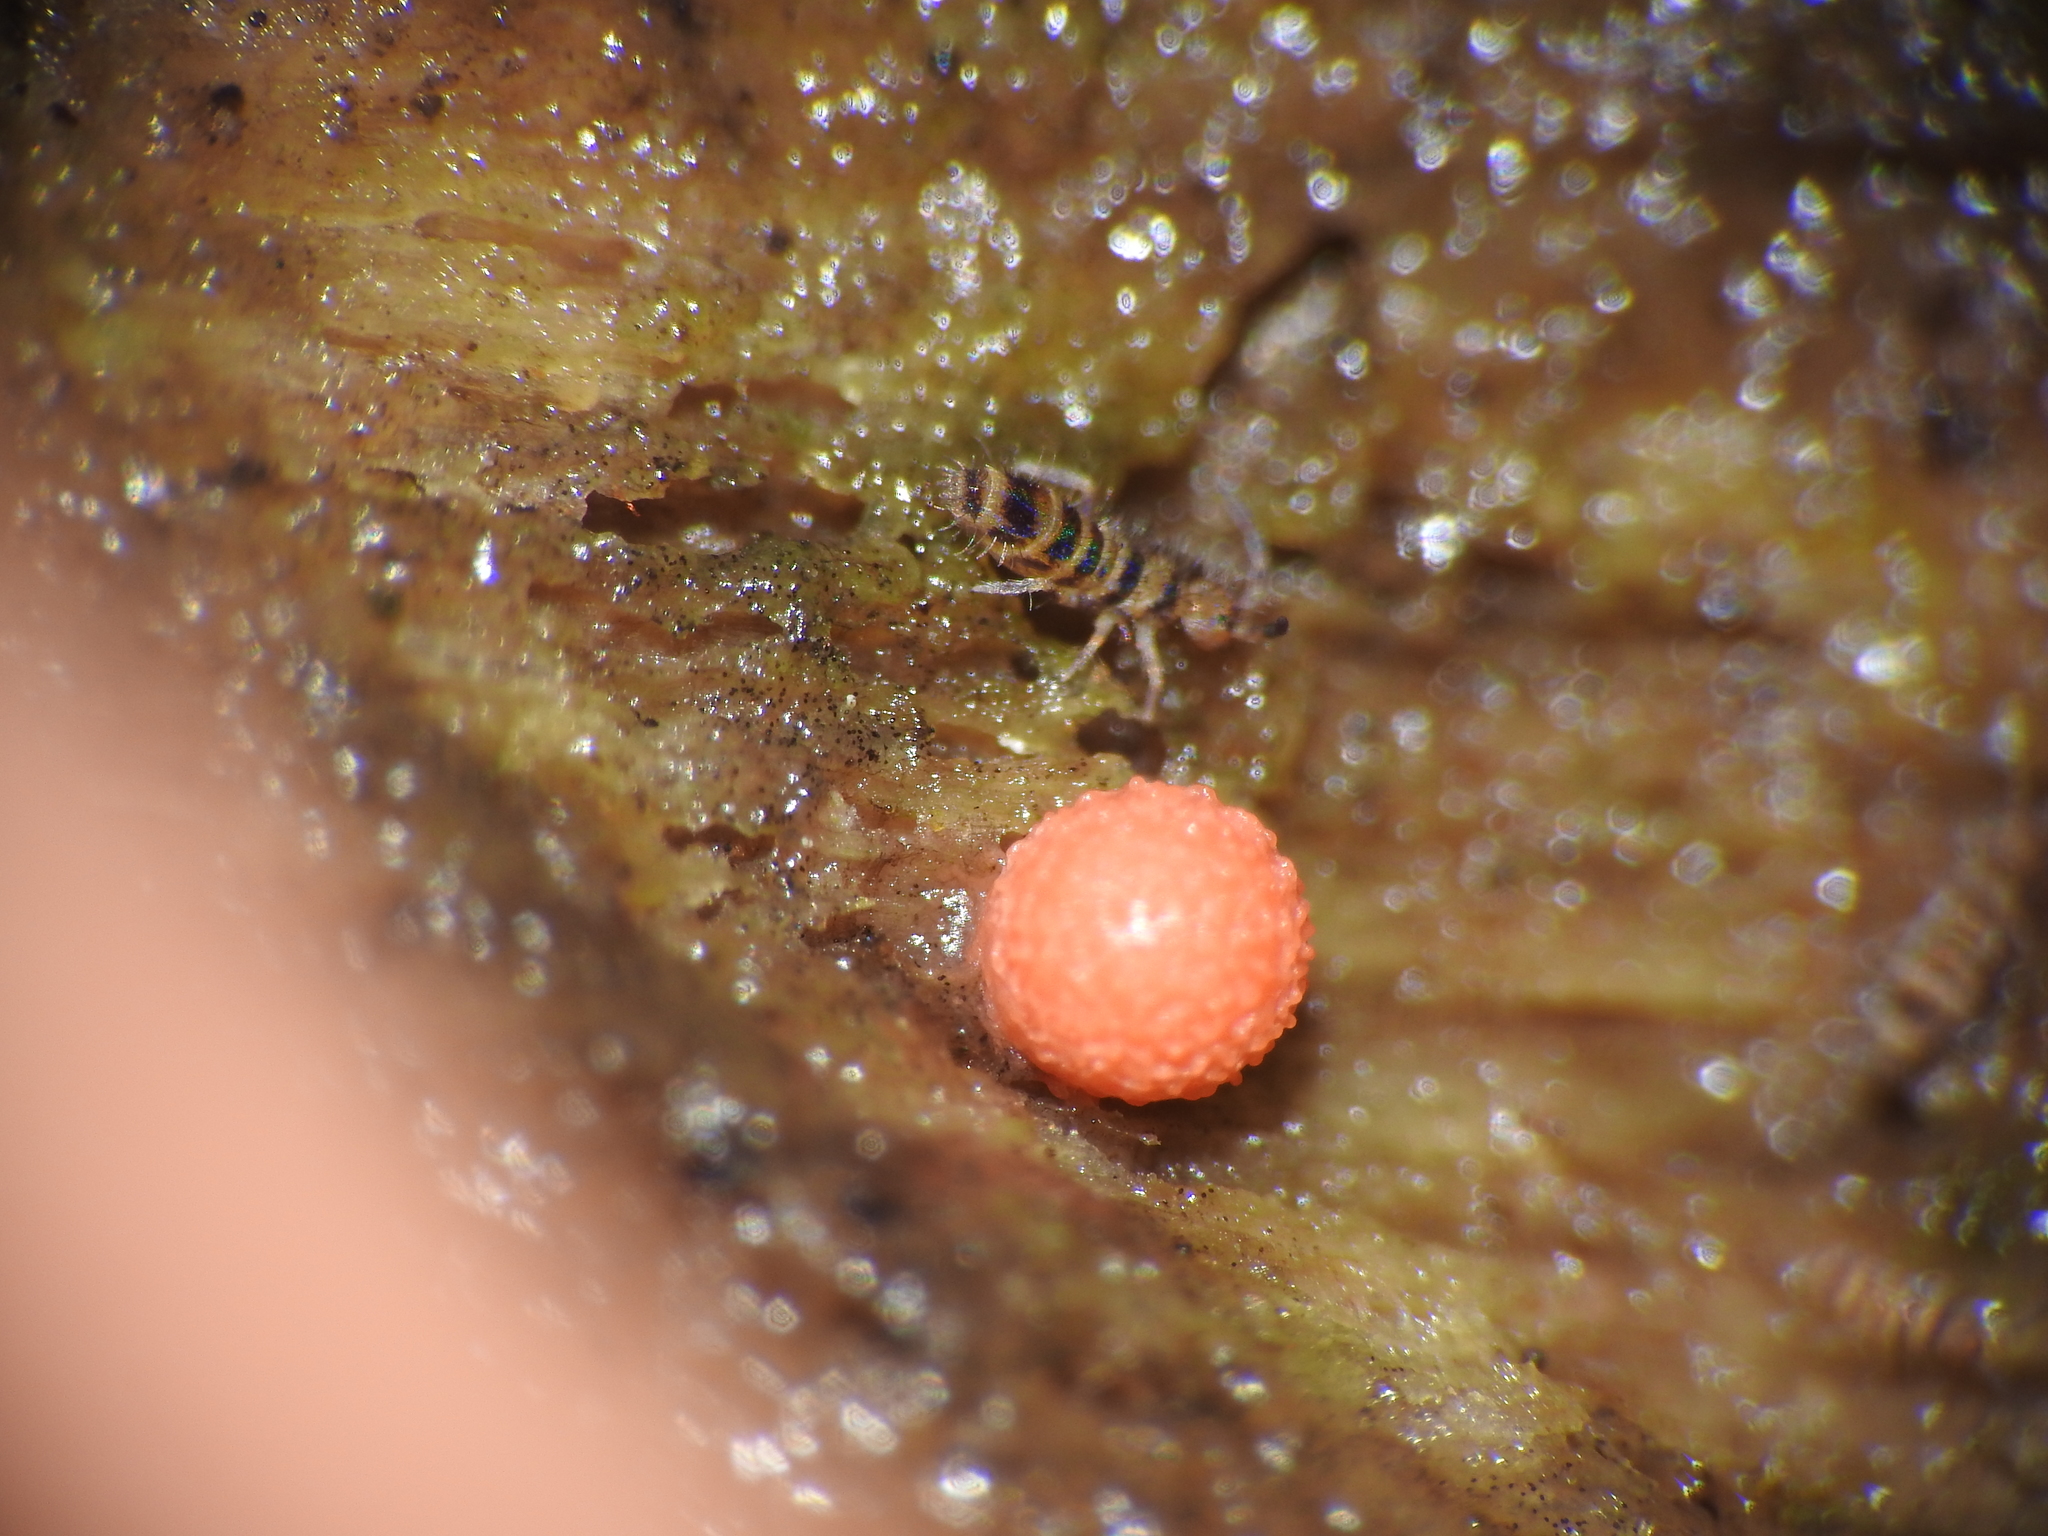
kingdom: Animalia
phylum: Arthropoda
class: Collembola
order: Entomobryomorpha
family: Orchesellidae
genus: Orchesella
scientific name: Orchesella hexfasciata
